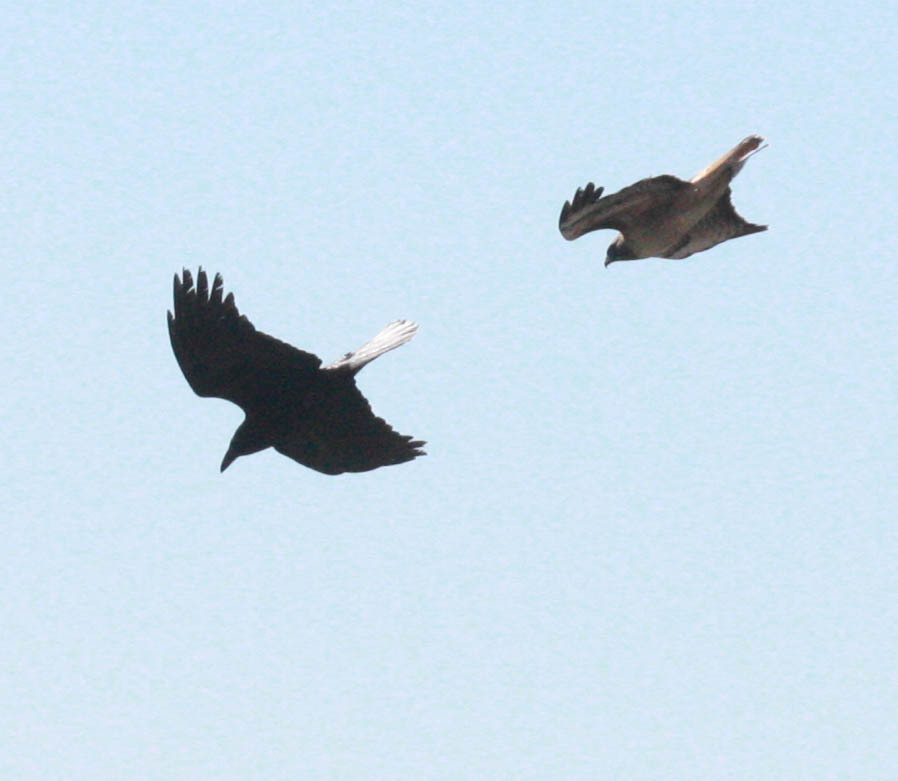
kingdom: Animalia
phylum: Chordata
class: Aves
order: Accipitriformes
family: Accipitridae
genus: Buteo
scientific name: Buteo jamaicensis
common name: Red-tailed hawk
